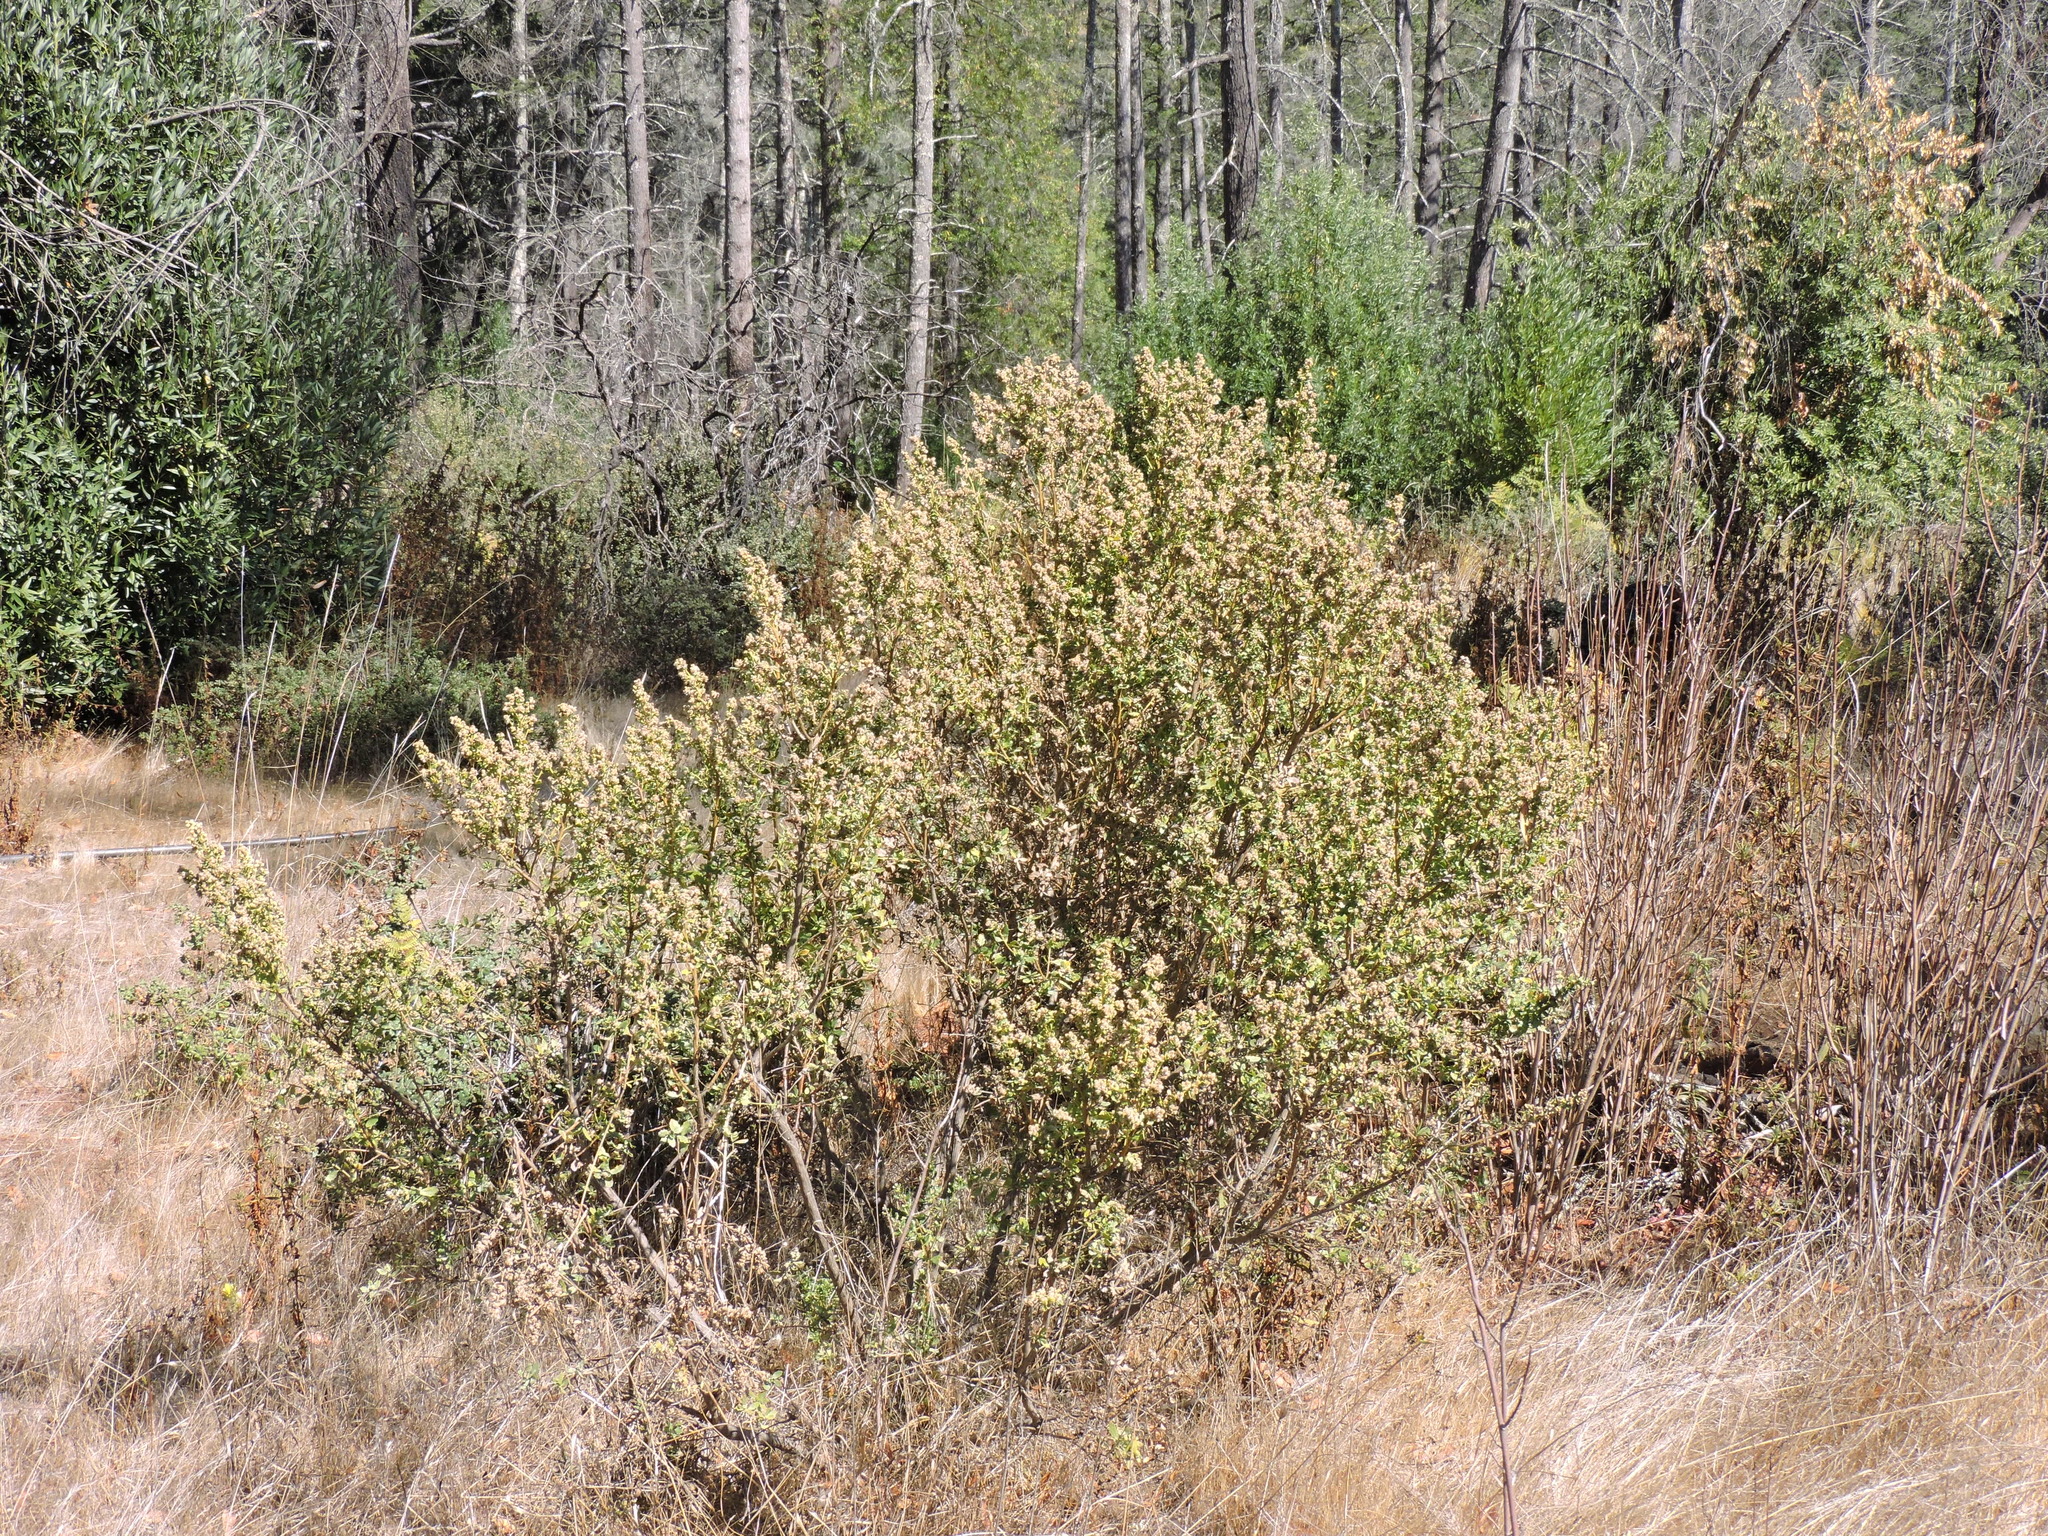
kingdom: Plantae
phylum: Tracheophyta
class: Magnoliopsida
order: Asterales
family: Asteraceae
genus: Baccharis
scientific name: Baccharis pilularis
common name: Coyotebrush
